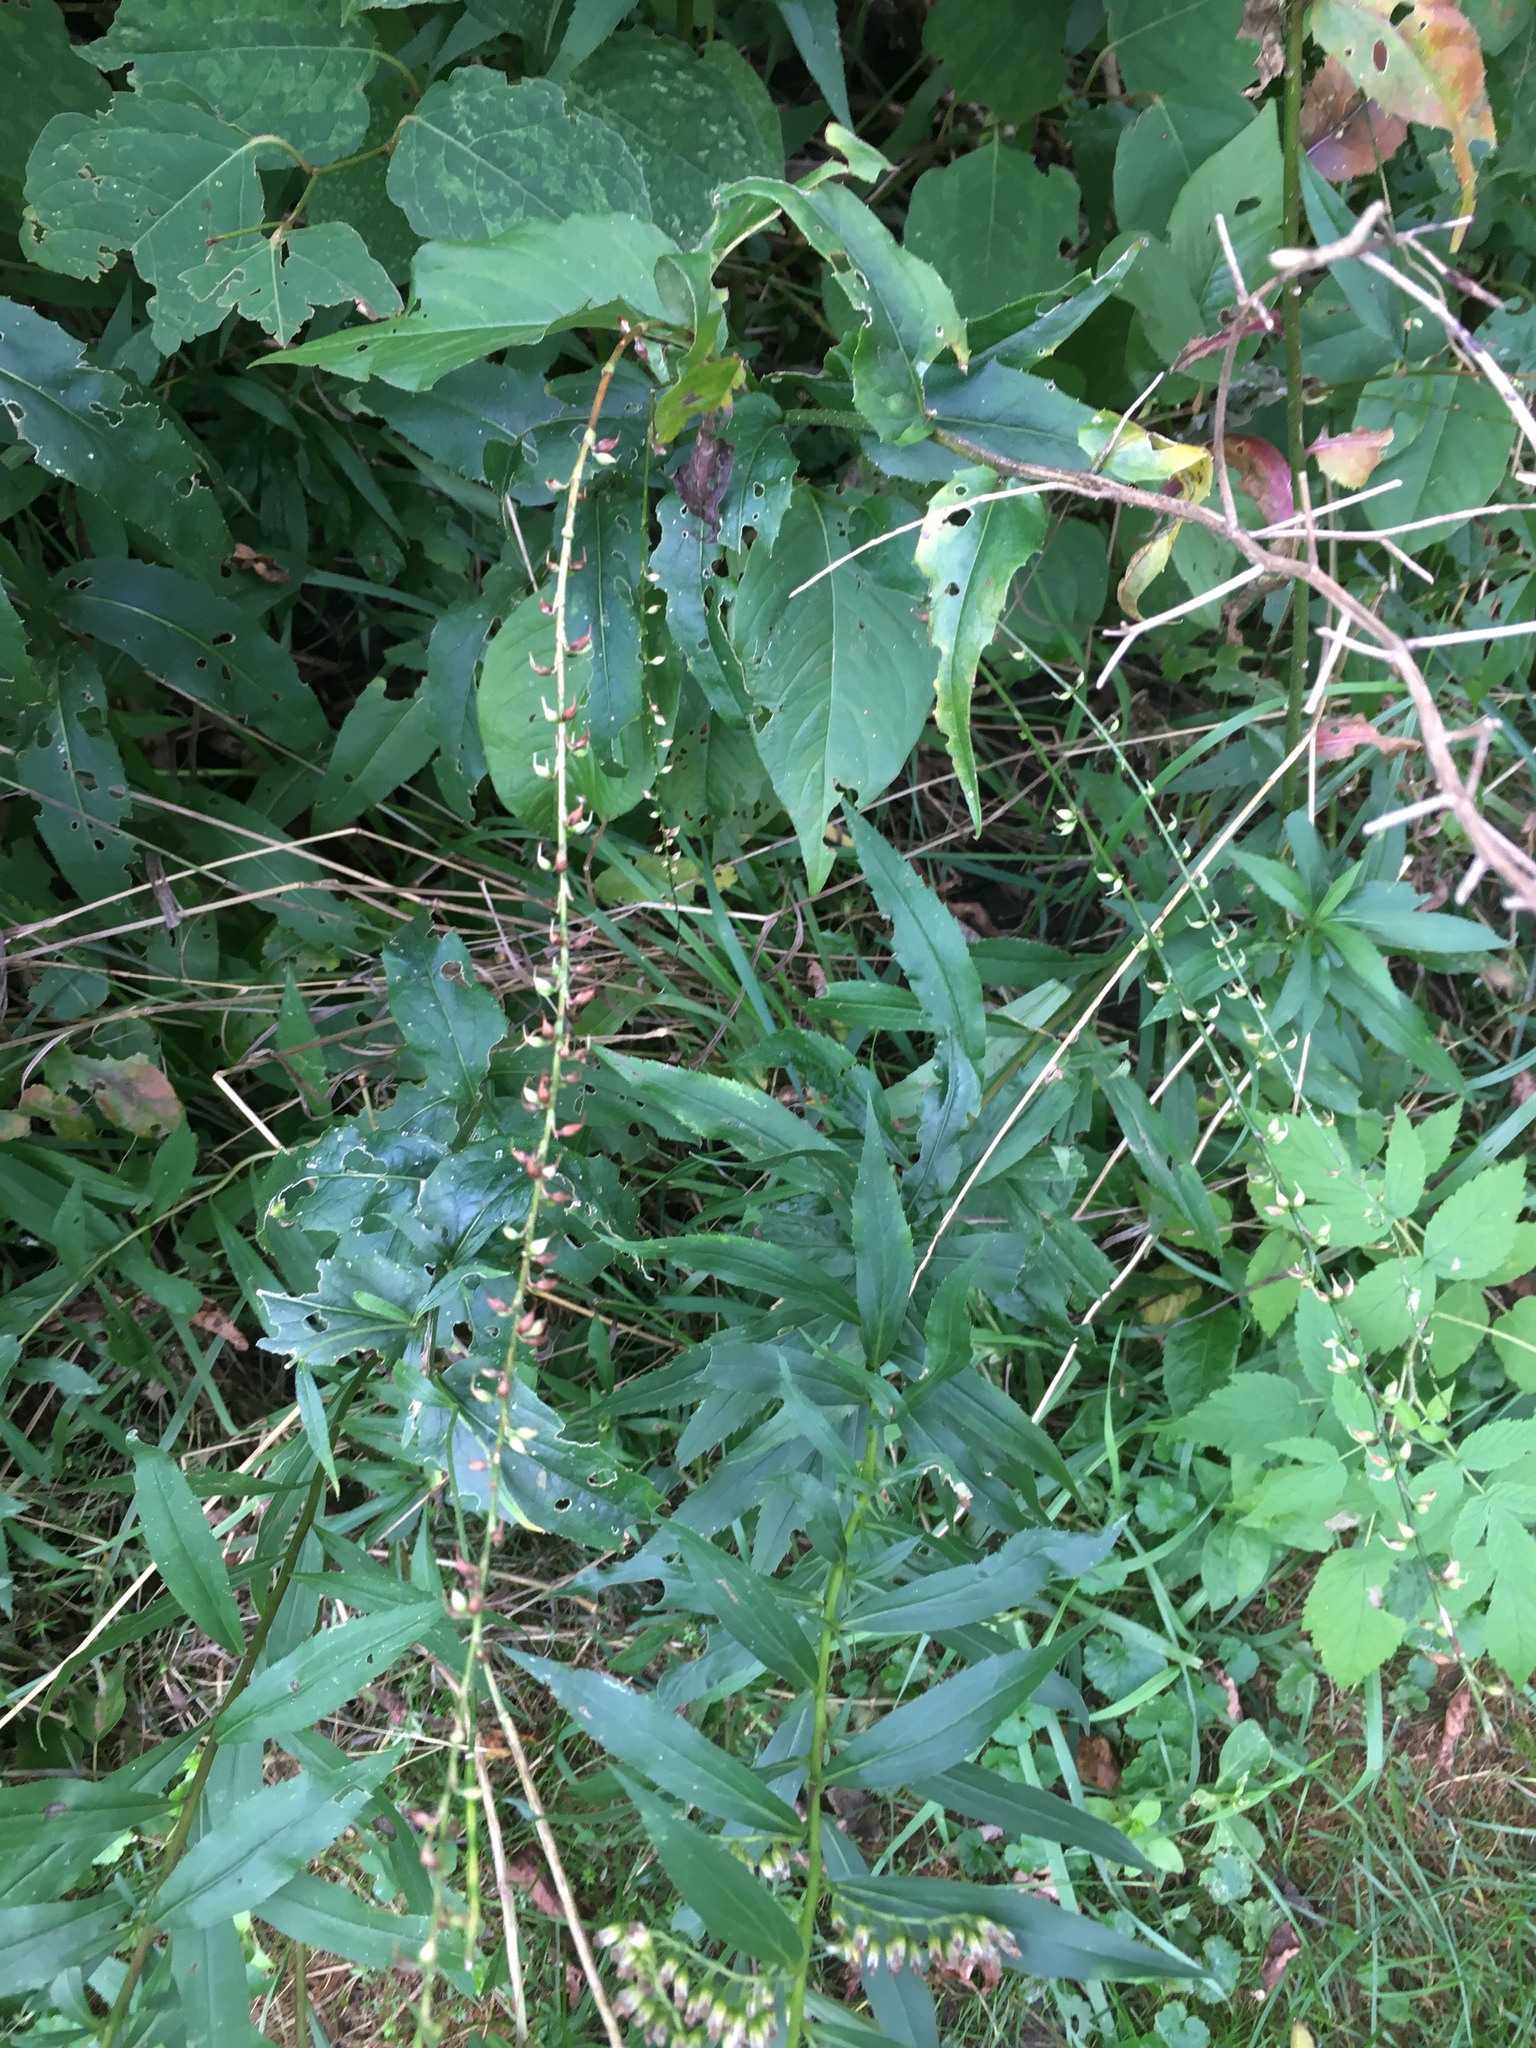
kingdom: Plantae
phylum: Tracheophyta
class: Magnoliopsida
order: Caryophyllales
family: Polygonaceae
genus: Persicaria
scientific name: Persicaria virginiana
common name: Jumpseed
